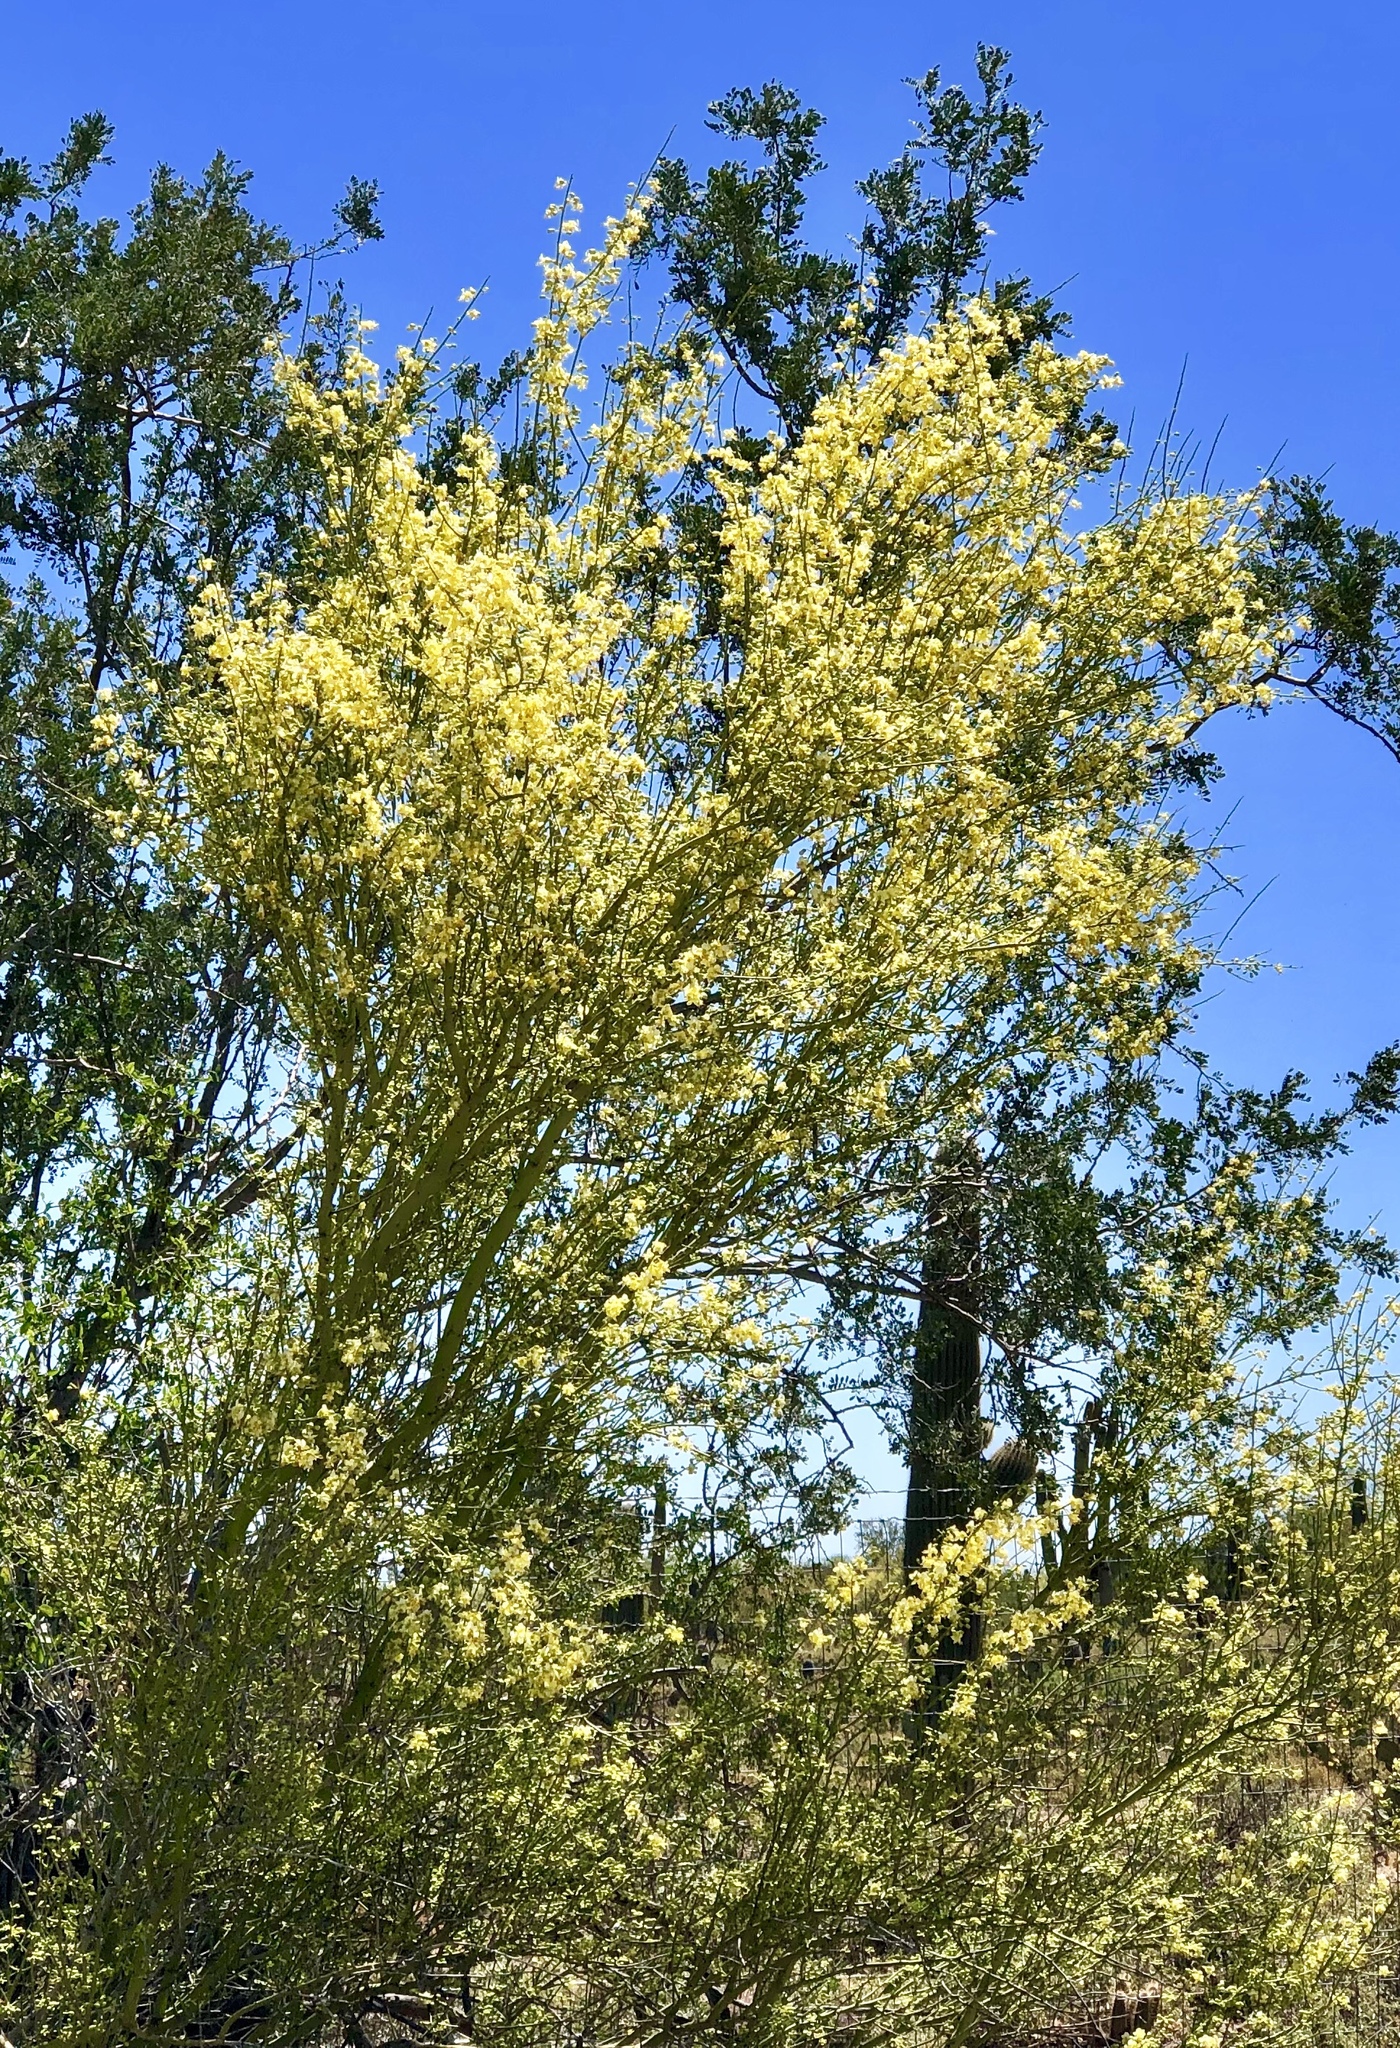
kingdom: Plantae
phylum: Tracheophyta
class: Magnoliopsida
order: Fabales
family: Fabaceae
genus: Parkinsonia
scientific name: Parkinsonia microphylla
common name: Yellow paloverde
